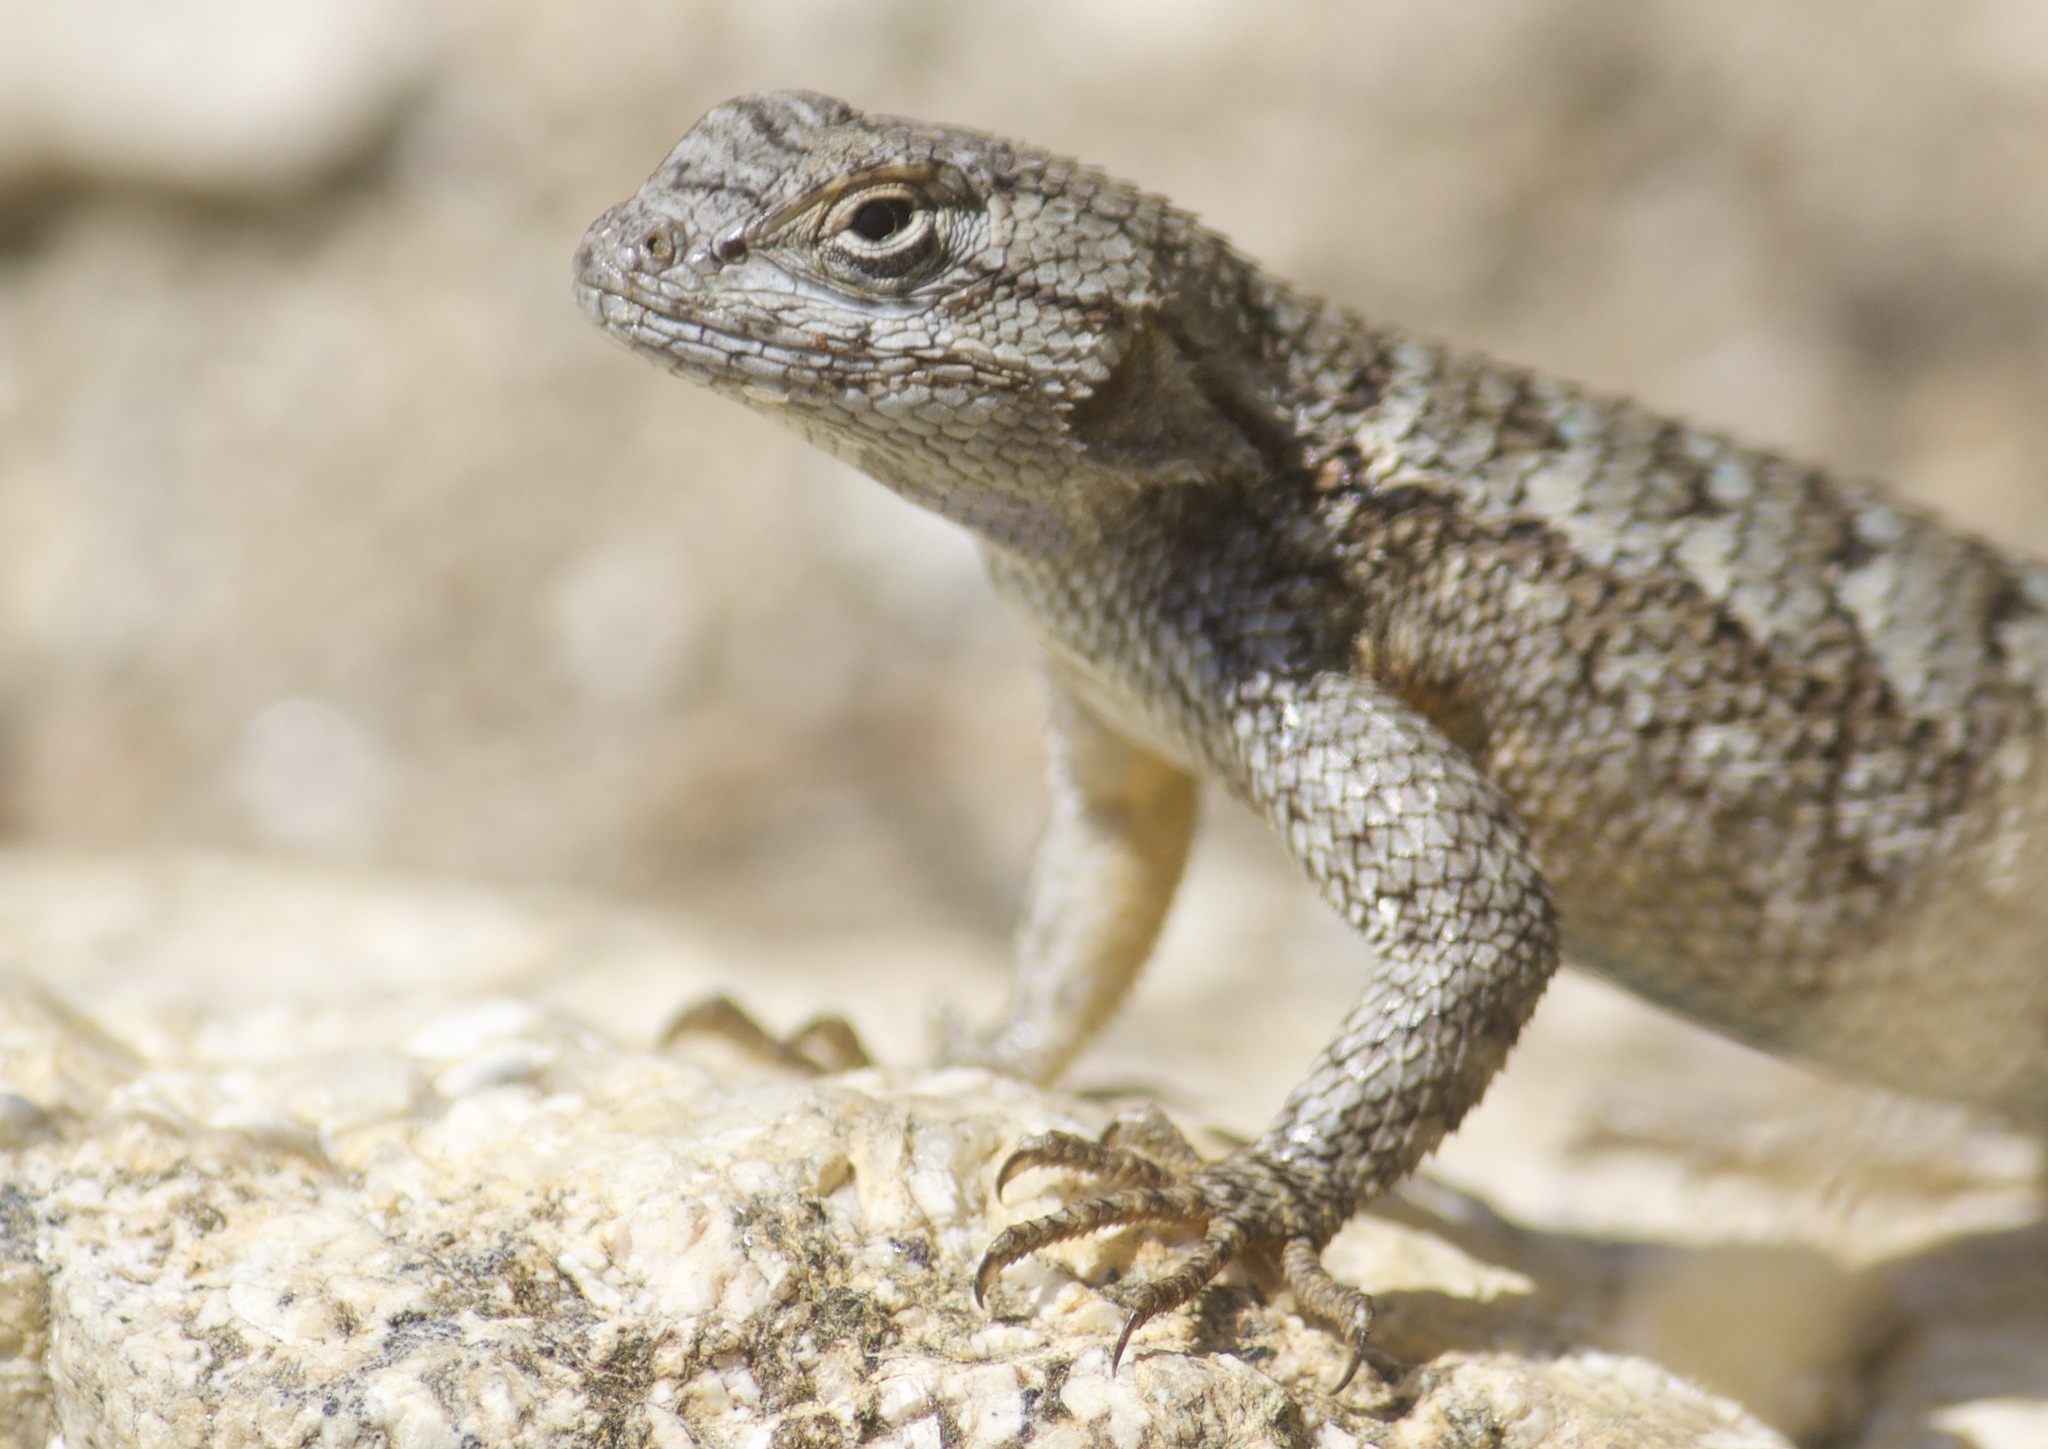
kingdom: Animalia
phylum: Chordata
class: Squamata
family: Phrynosomatidae
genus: Sceloporus
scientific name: Sceloporus occidentalis
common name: Western fence lizard
